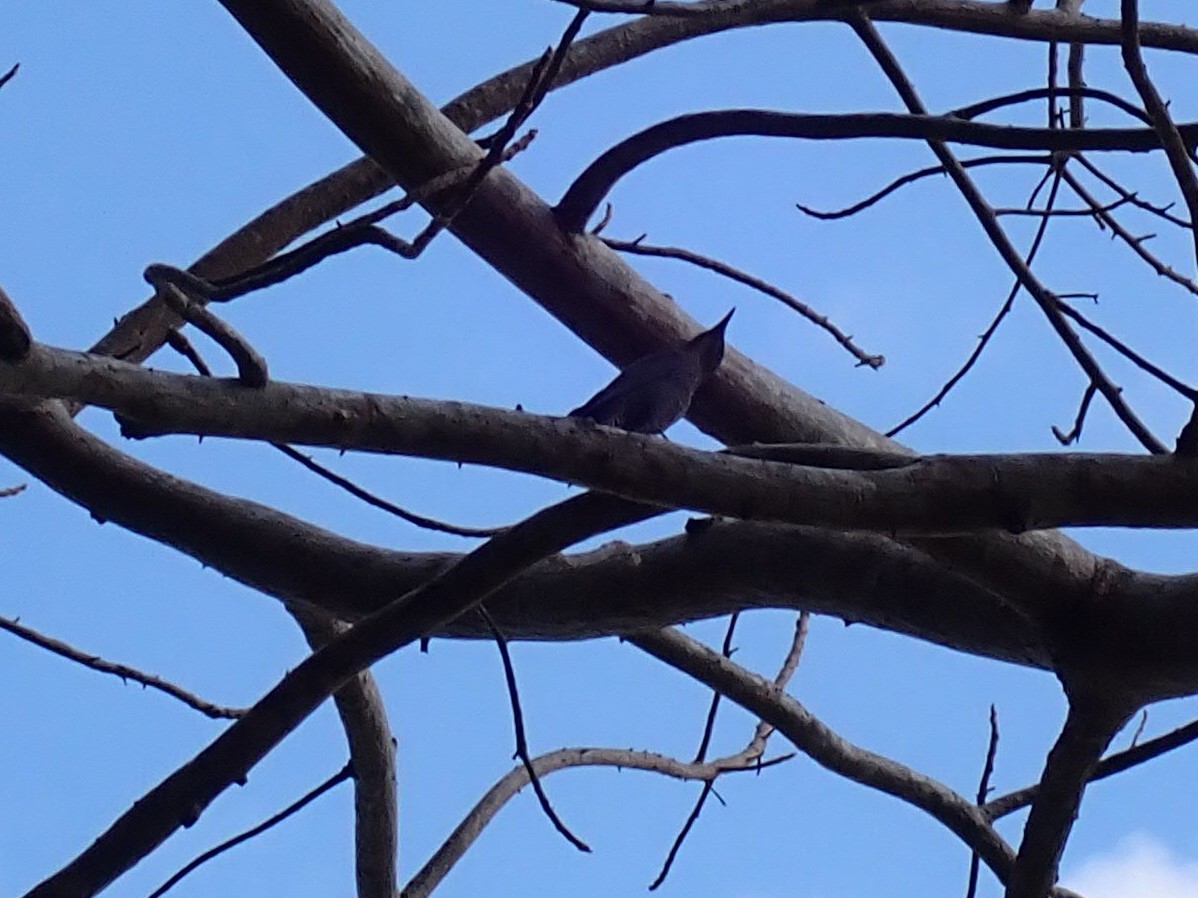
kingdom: Animalia
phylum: Chordata
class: Aves
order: Passeriformes
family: Muscicapidae
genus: Monticola
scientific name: Monticola solitarius
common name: Blue rock thrush
